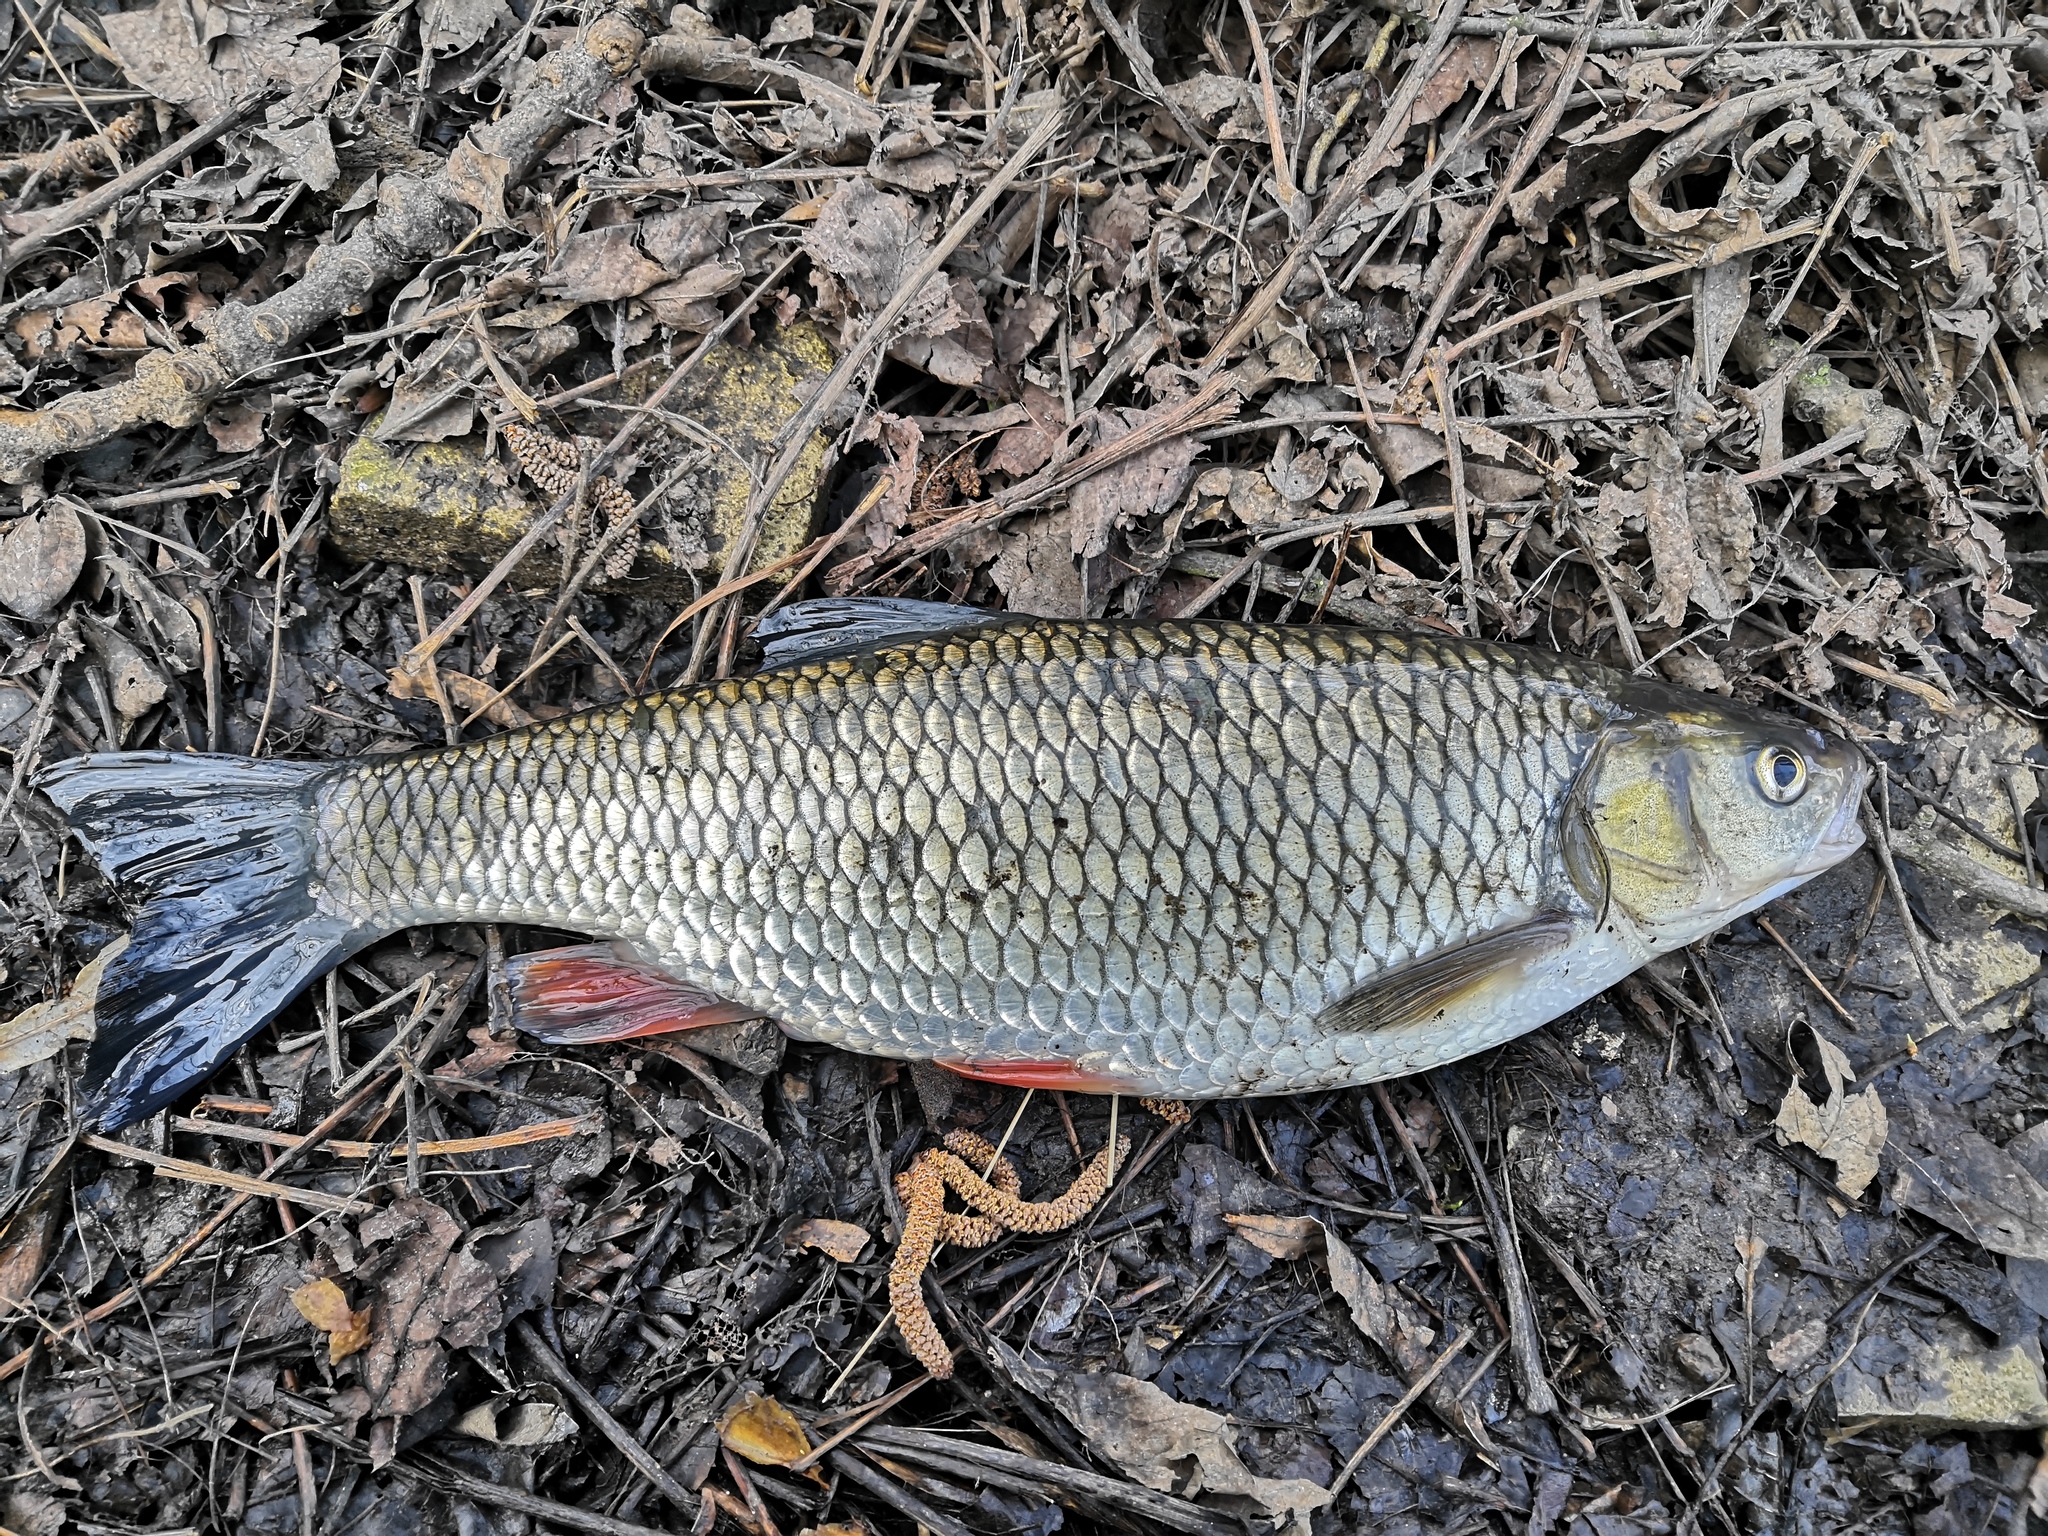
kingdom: Animalia
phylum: Chordata
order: Cypriniformes
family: Cyprinidae
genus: Squalius
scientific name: Squalius cephalus
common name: Chub
